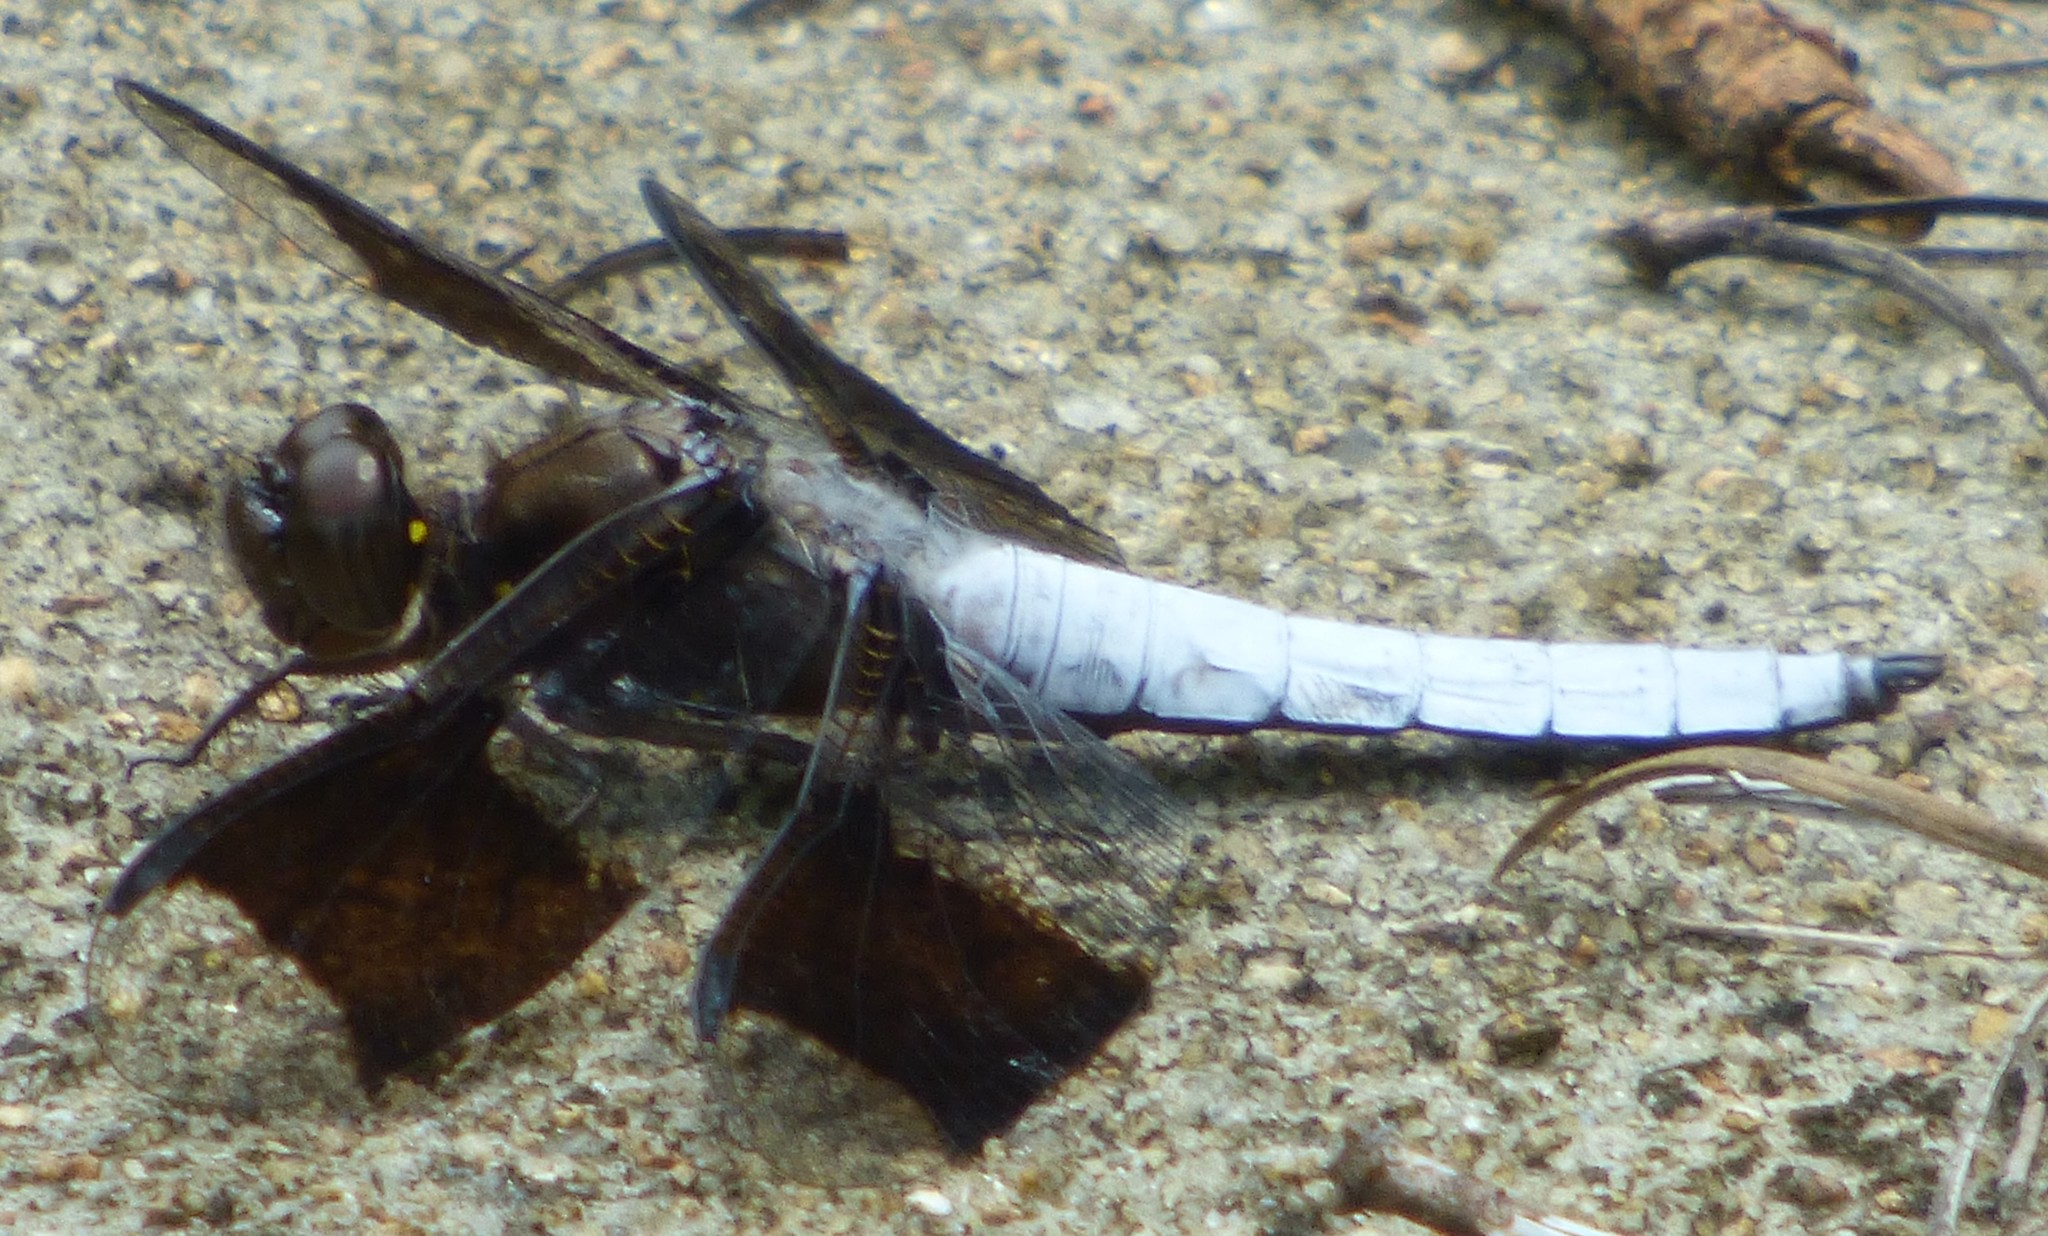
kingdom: Animalia
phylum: Arthropoda
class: Insecta
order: Odonata
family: Libellulidae
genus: Plathemis
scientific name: Plathemis lydia
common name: Common whitetail
